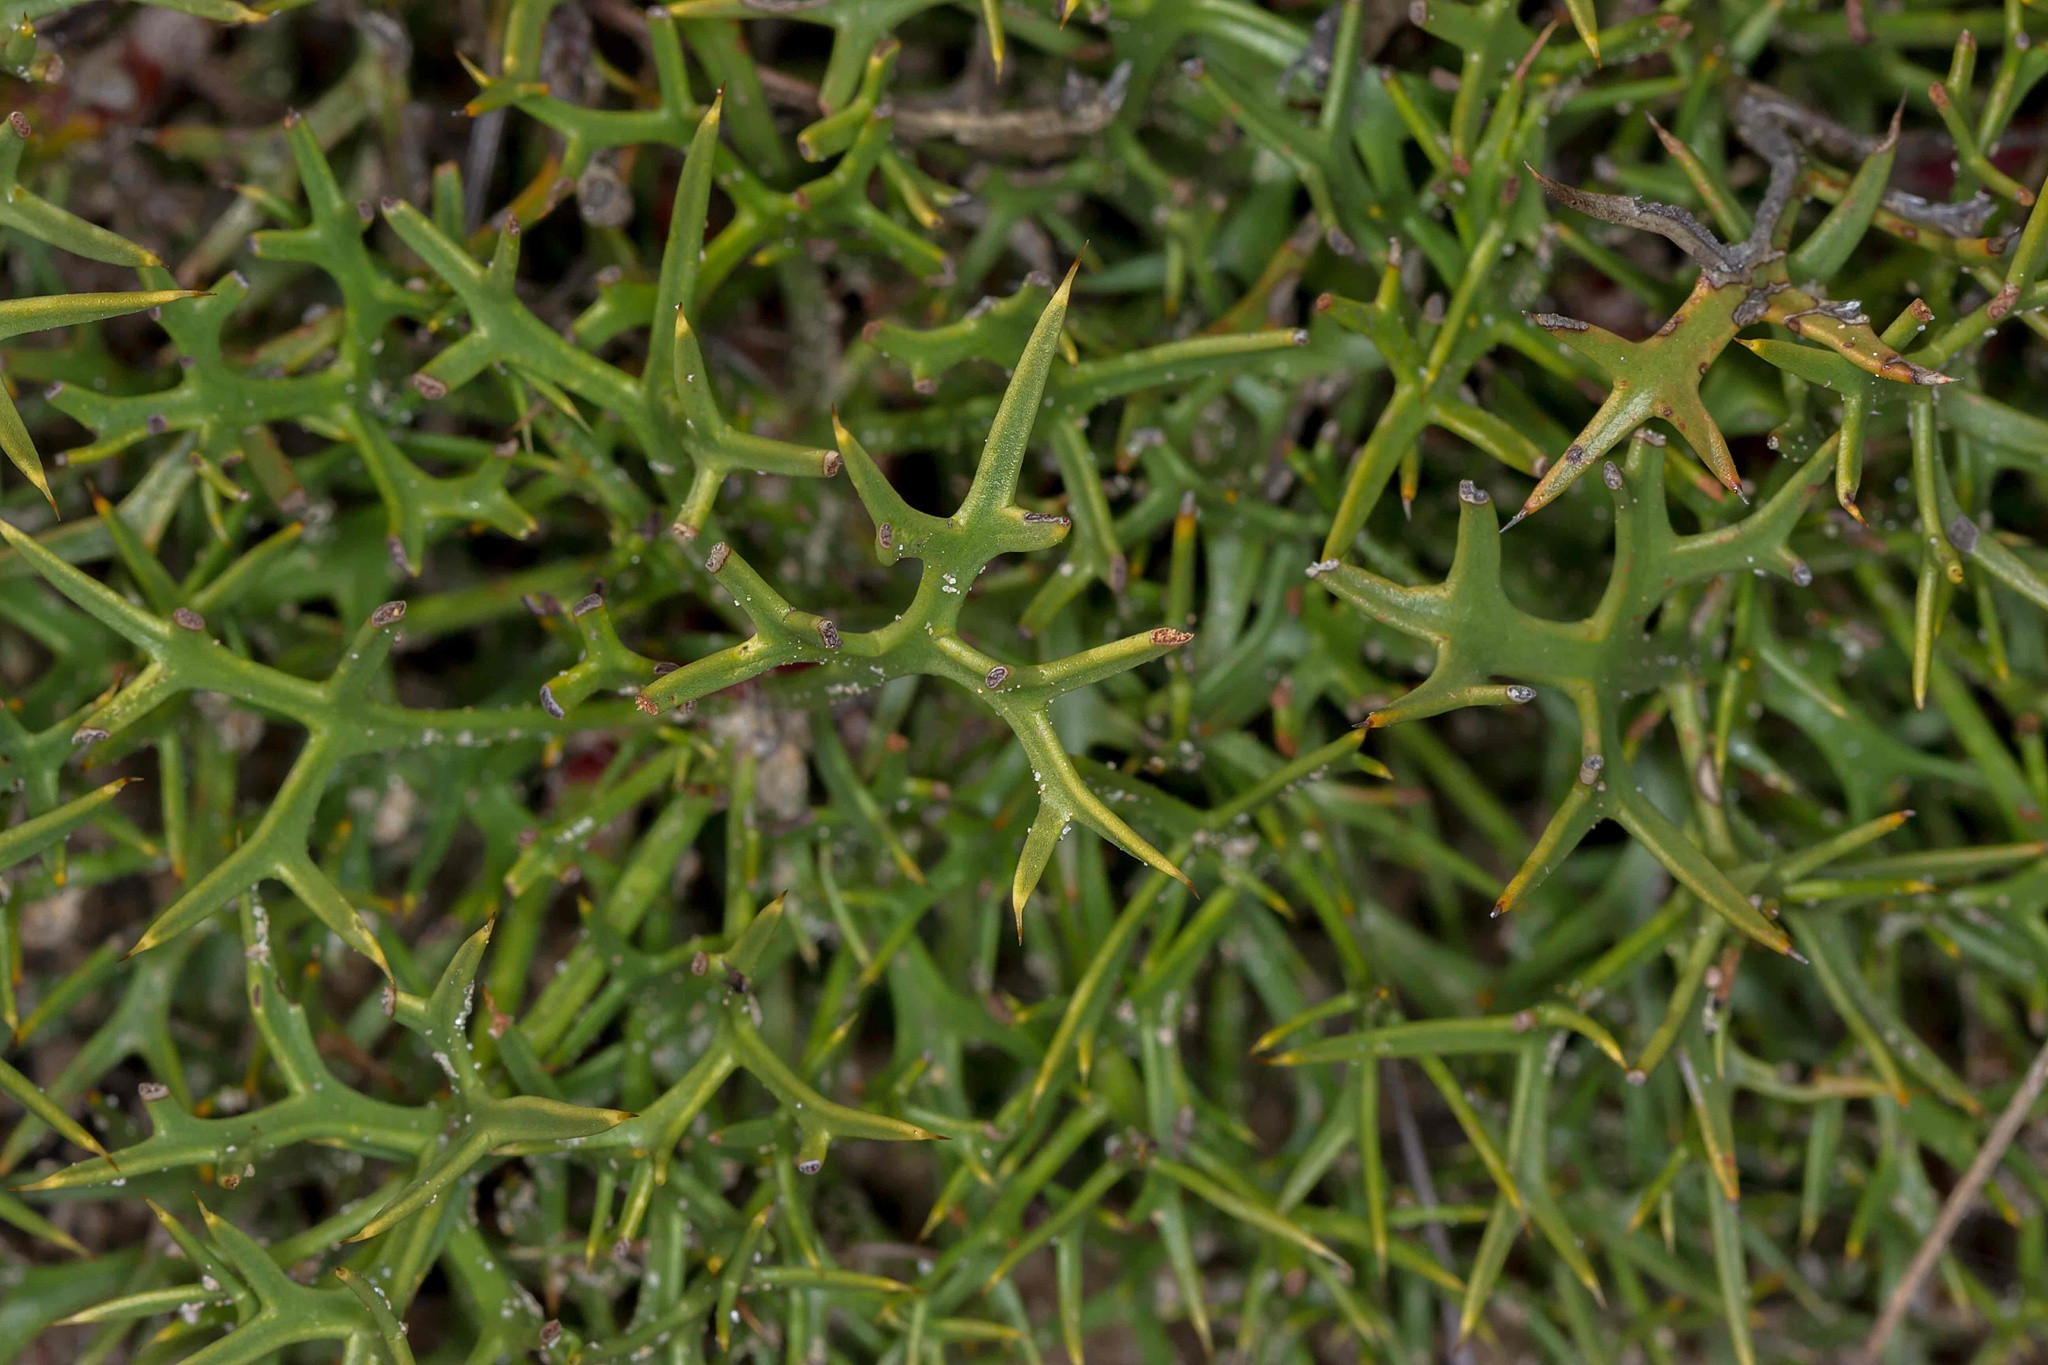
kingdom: Plantae
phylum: Tracheophyta
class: Magnoliopsida
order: Proteales
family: Proteaceae
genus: Isopogon
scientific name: Isopogon ceratophyllus
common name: Horny cone-bush
